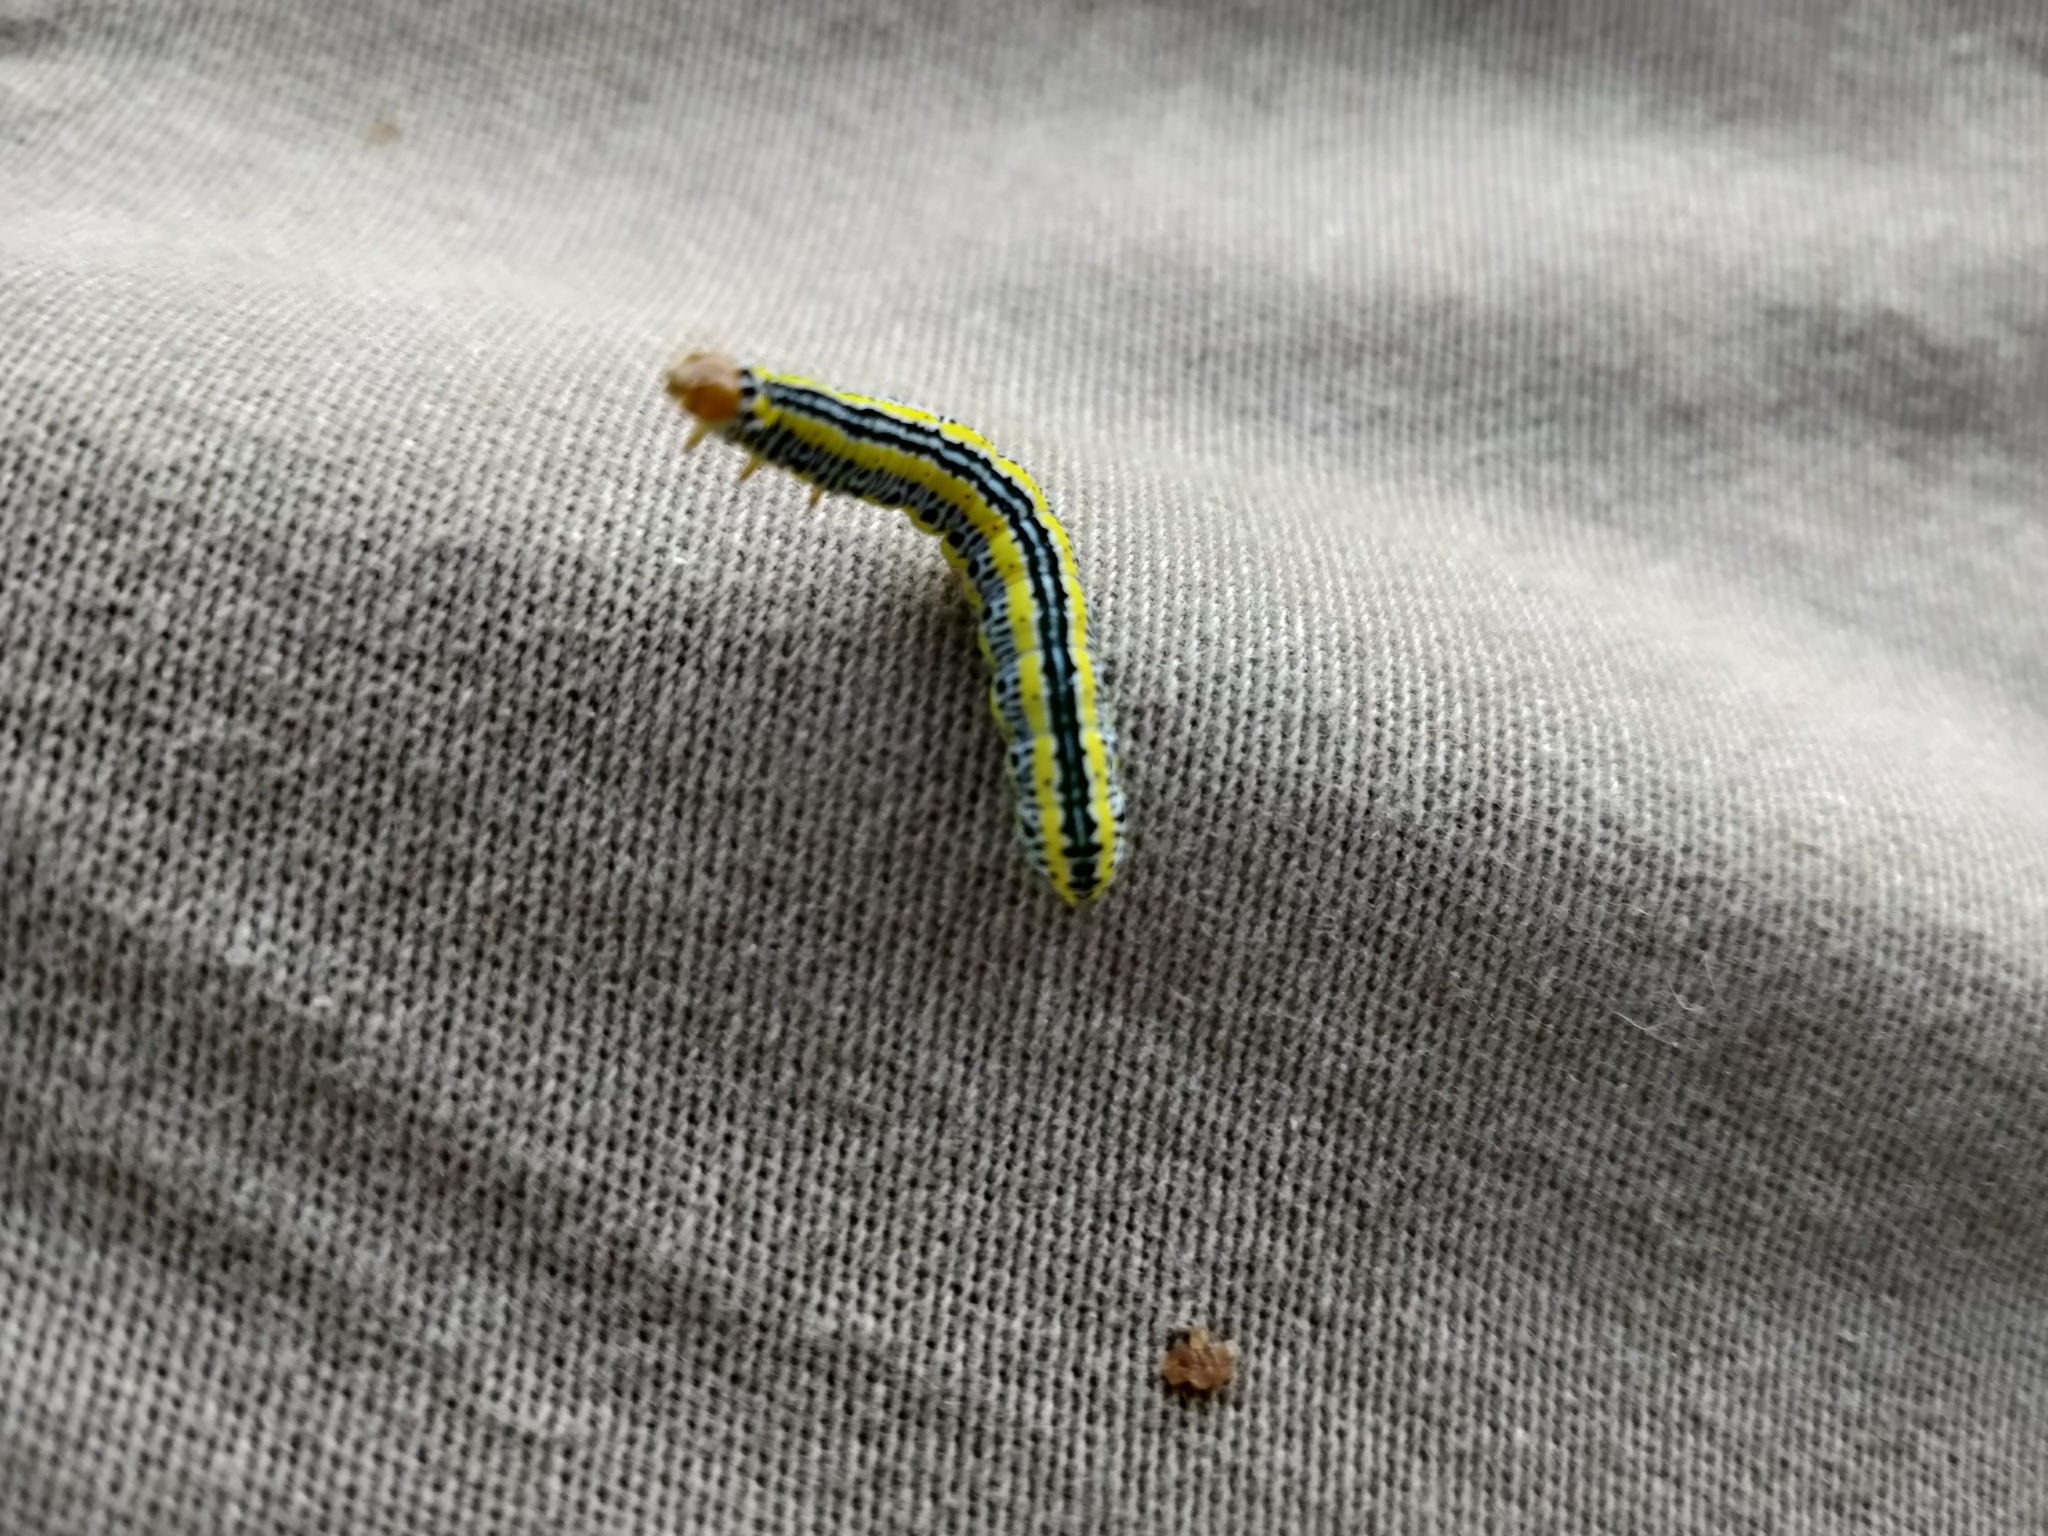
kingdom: Animalia
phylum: Arthropoda
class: Insecta
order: Lepidoptera
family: Noctuidae
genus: Melanchra
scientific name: Melanchra picta
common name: Zebra caterpillar
